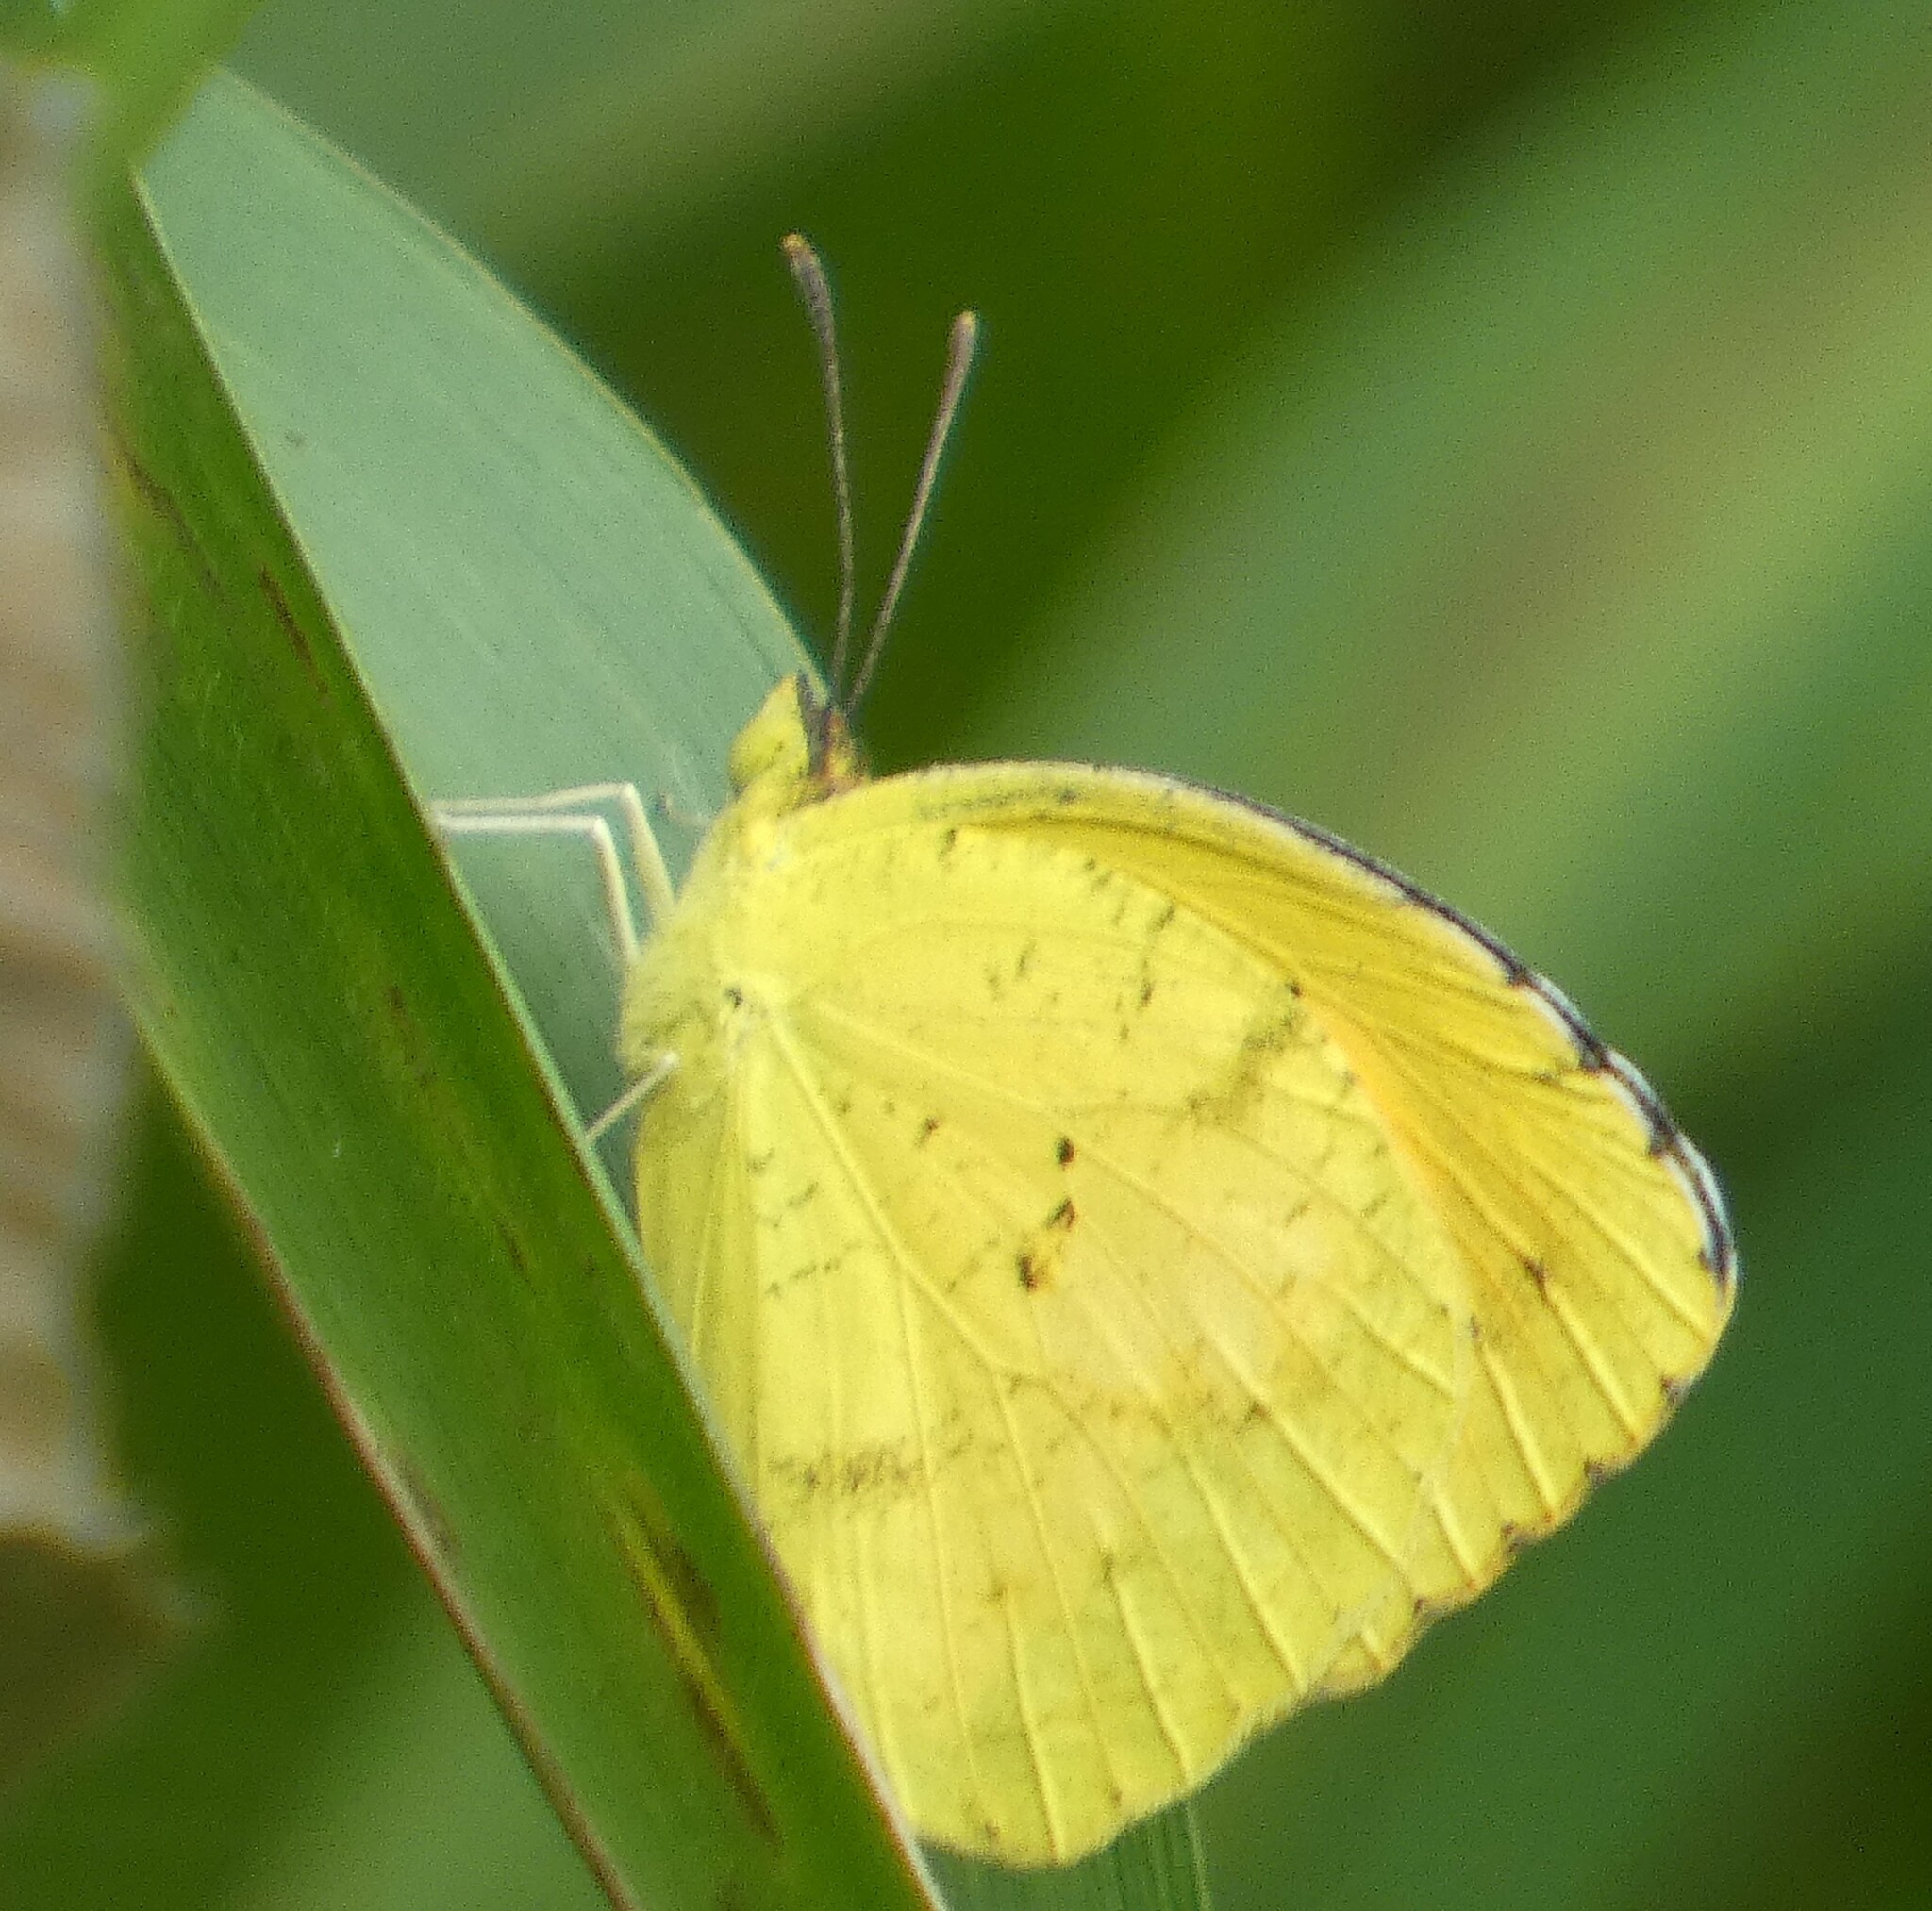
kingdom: Animalia
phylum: Arthropoda
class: Insecta
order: Lepidoptera
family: Pieridae
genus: Abaeis
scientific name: Abaeis nicippe
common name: Sleepy orange
